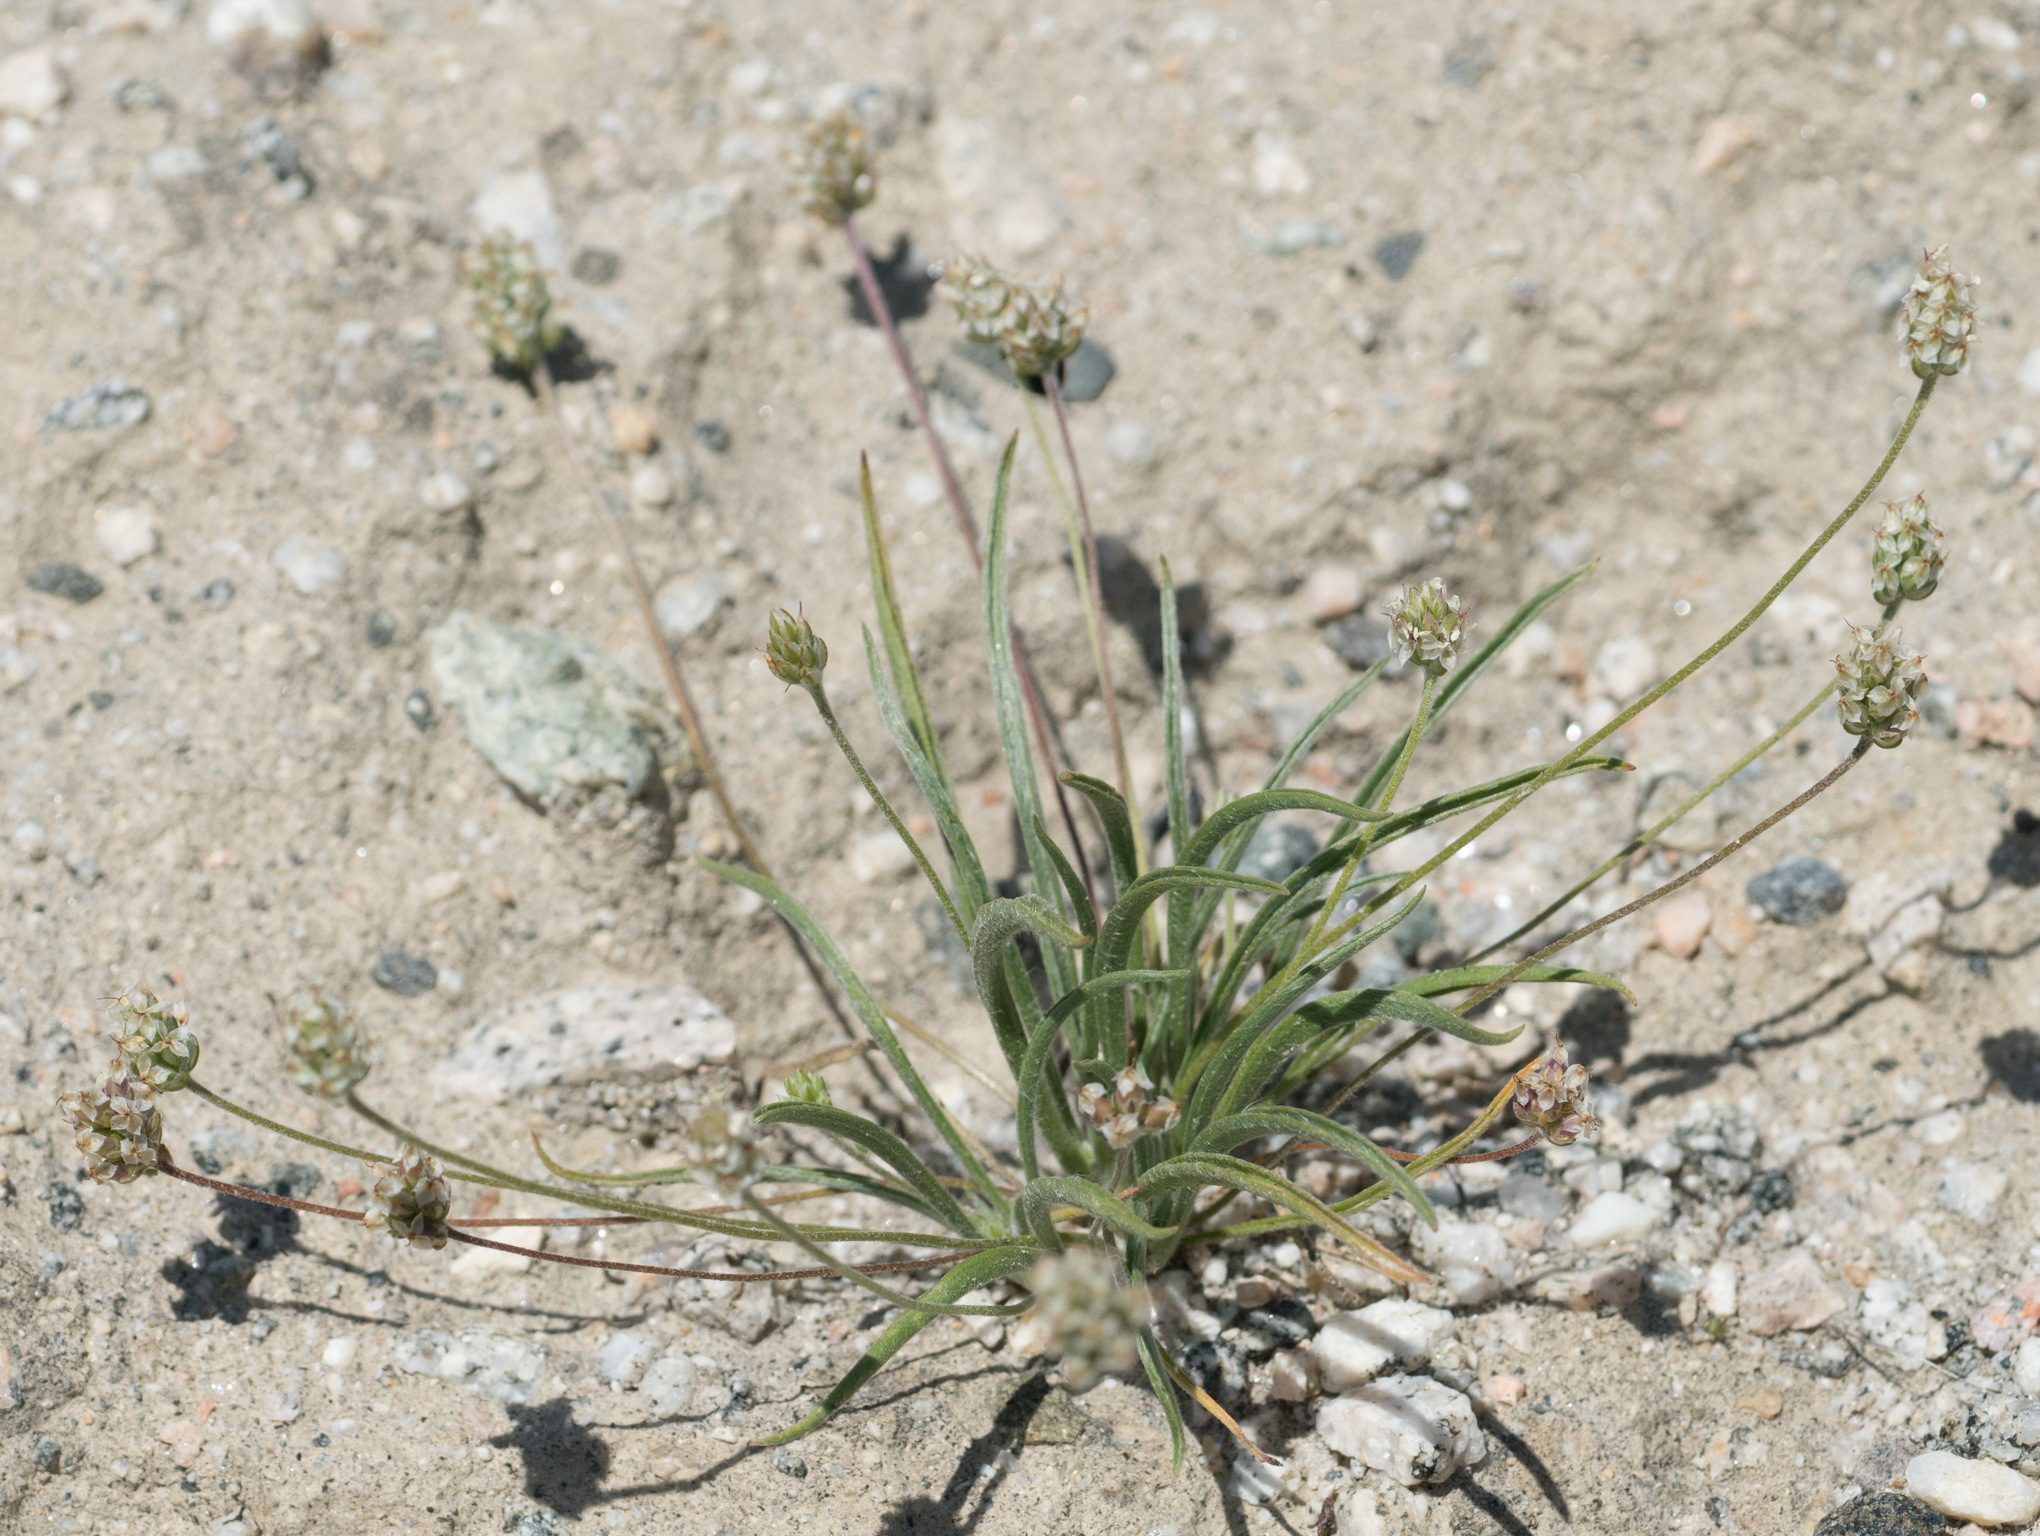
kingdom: Plantae
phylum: Tracheophyta
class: Magnoliopsida
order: Lamiales
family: Plantaginaceae
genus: Plantago
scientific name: Plantago ovata
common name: Blond plantain
